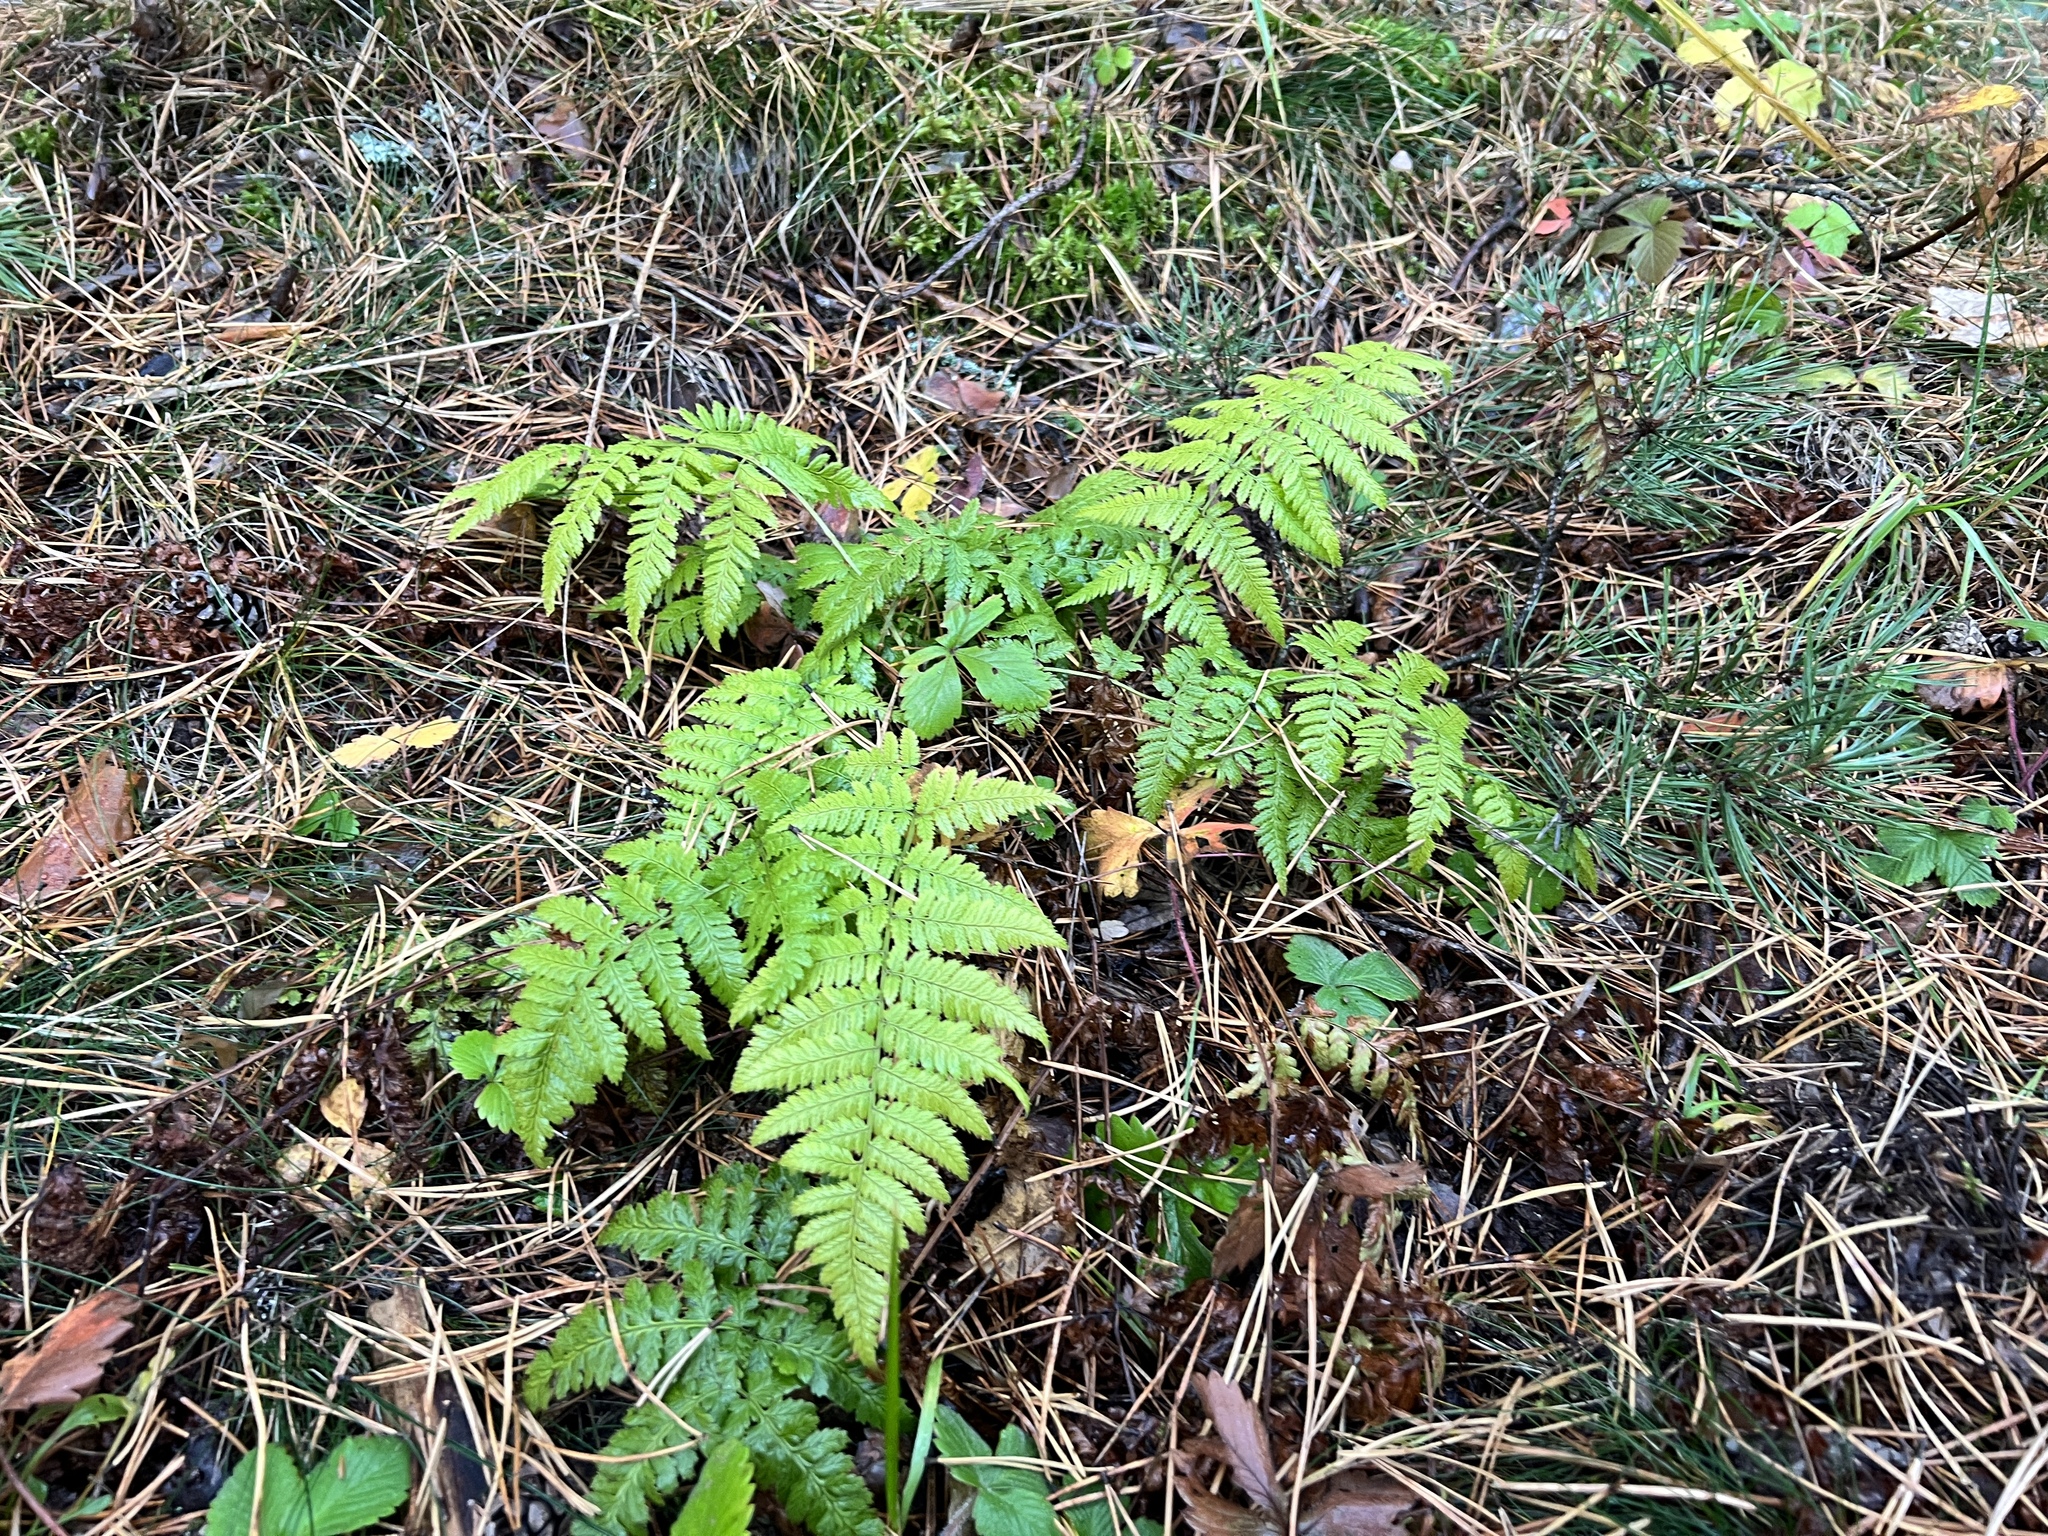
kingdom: Plantae
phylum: Tracheophyta
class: Polypodiopsida
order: Polypodiales
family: Dryopteridaceae
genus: Dryopteris
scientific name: Dryopteris carthusiana
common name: Narrow buckler-fern
